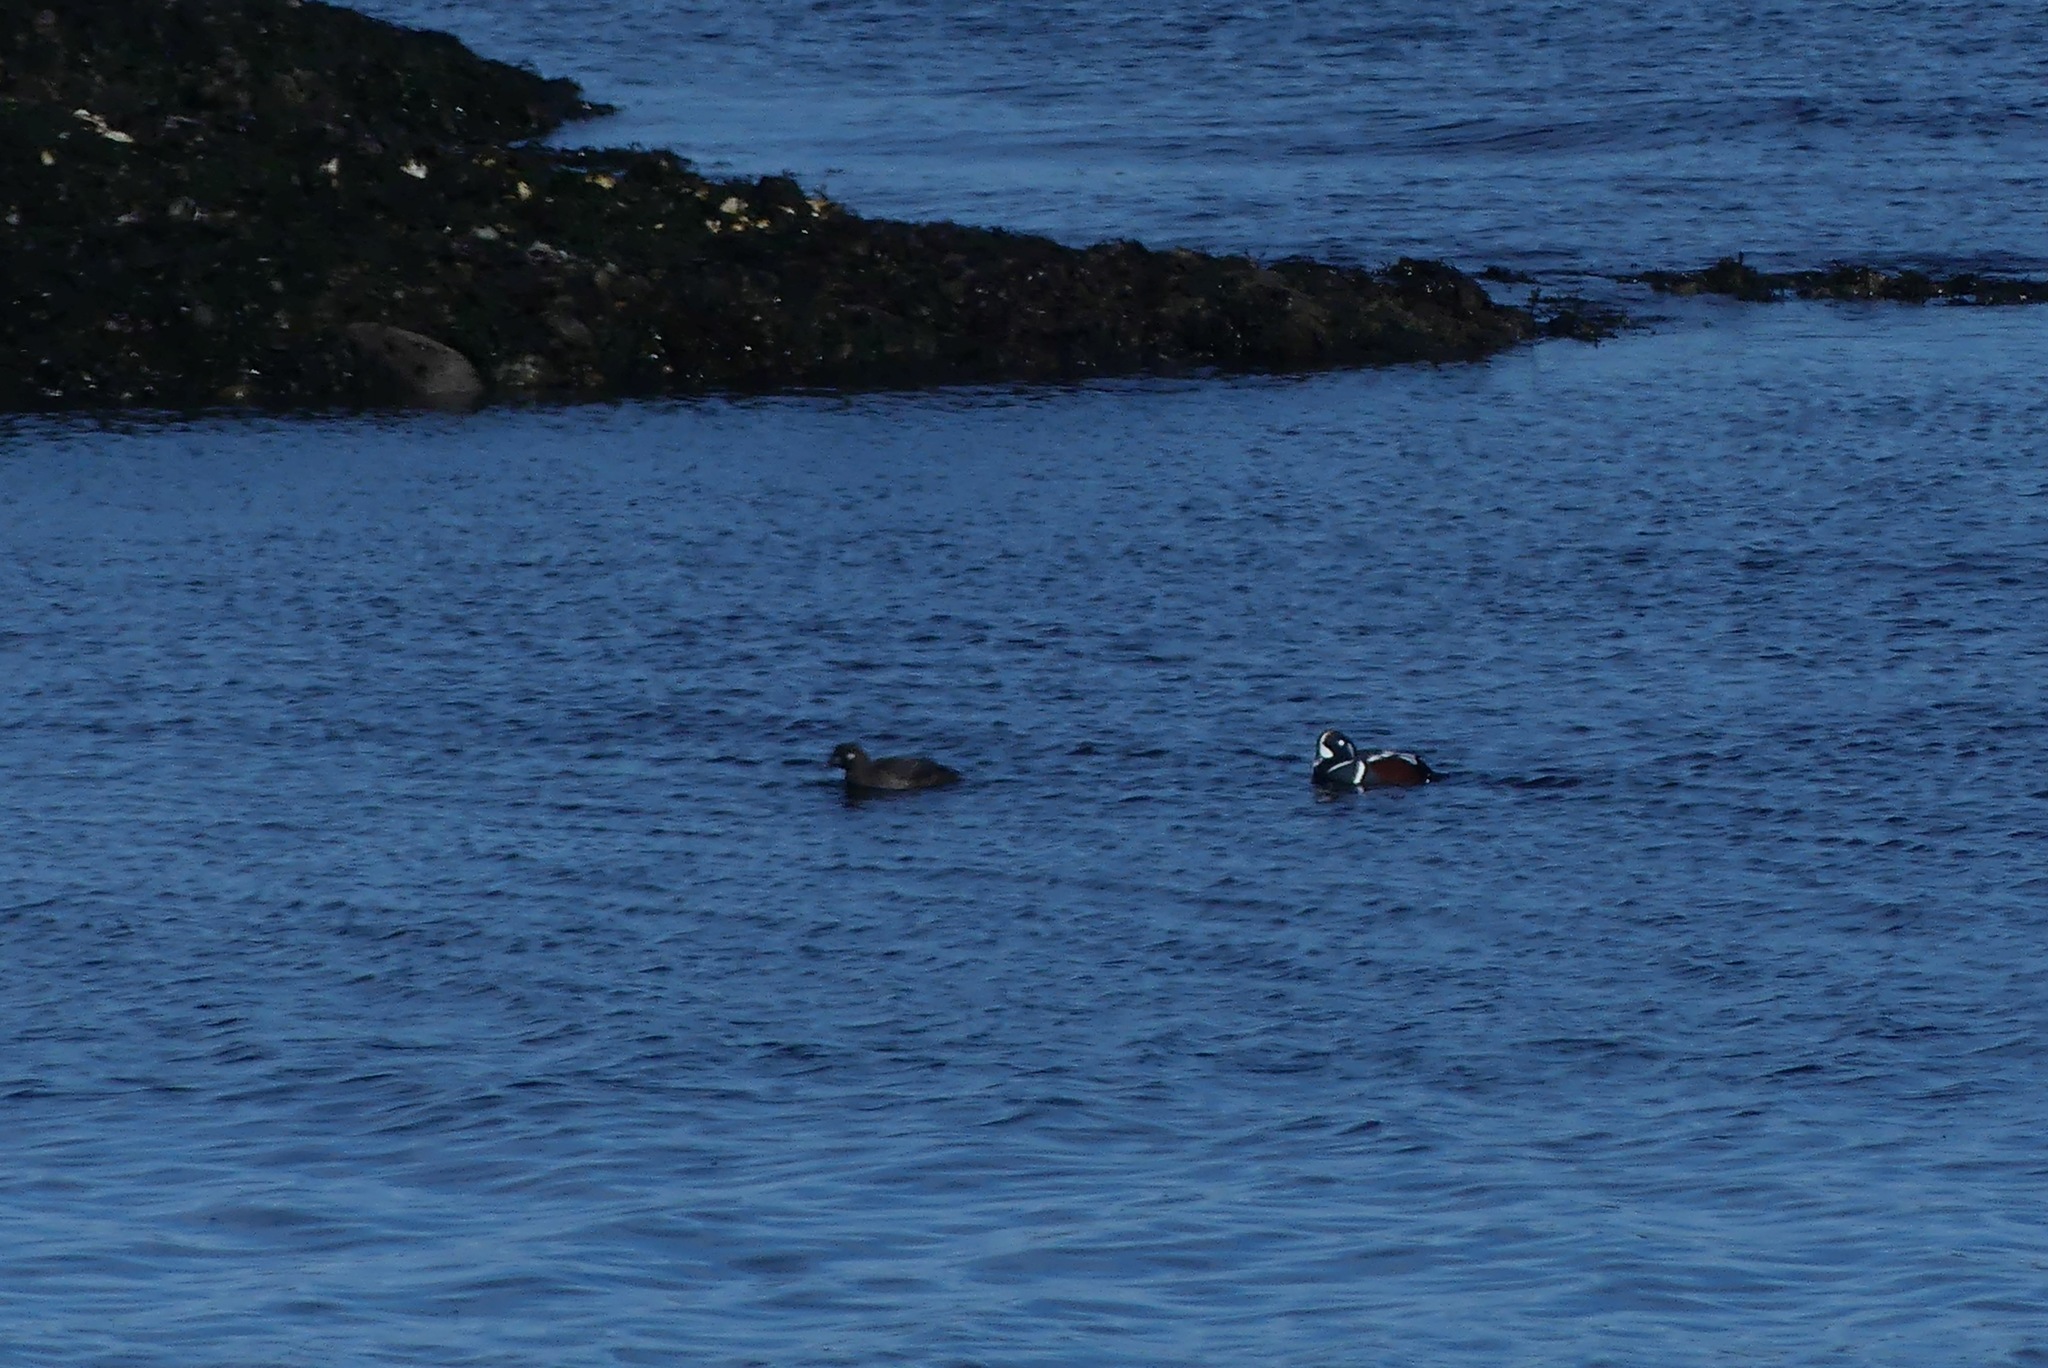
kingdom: Animalia
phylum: Chordata
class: Aves
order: Anseriformes
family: Anatidae
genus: Histrionicus
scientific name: Histrionicus histrionicus
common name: Harlequin duck
